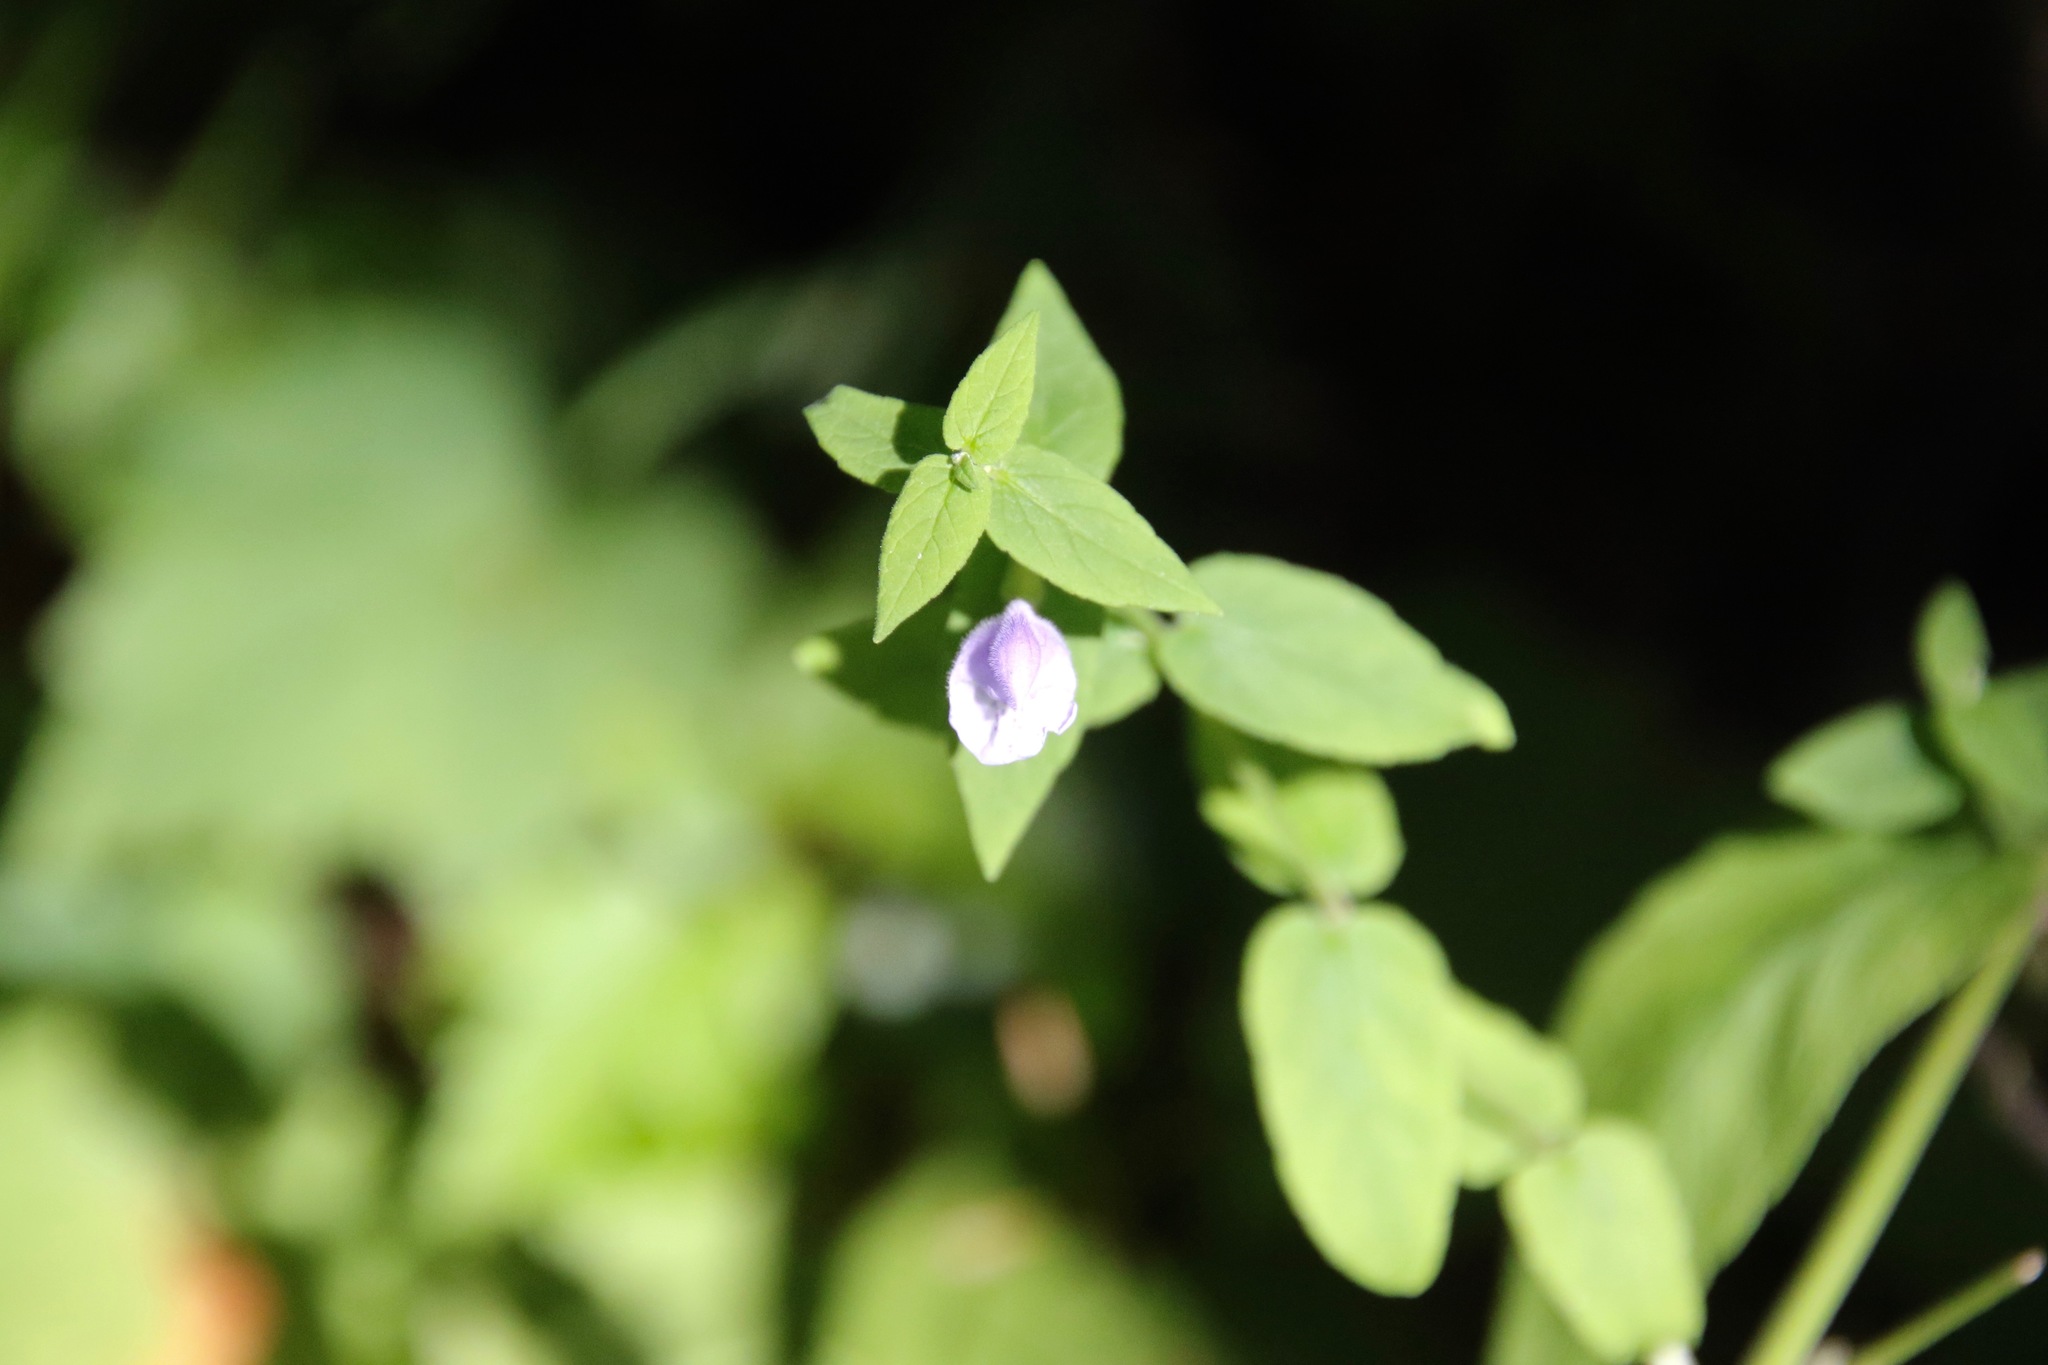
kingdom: Plantae
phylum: Tracheophyta
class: Magnoliopsida
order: Lamiales
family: Lamiaceae
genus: Scutellaria
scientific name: Scutellaria galericulata
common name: Skullcap
